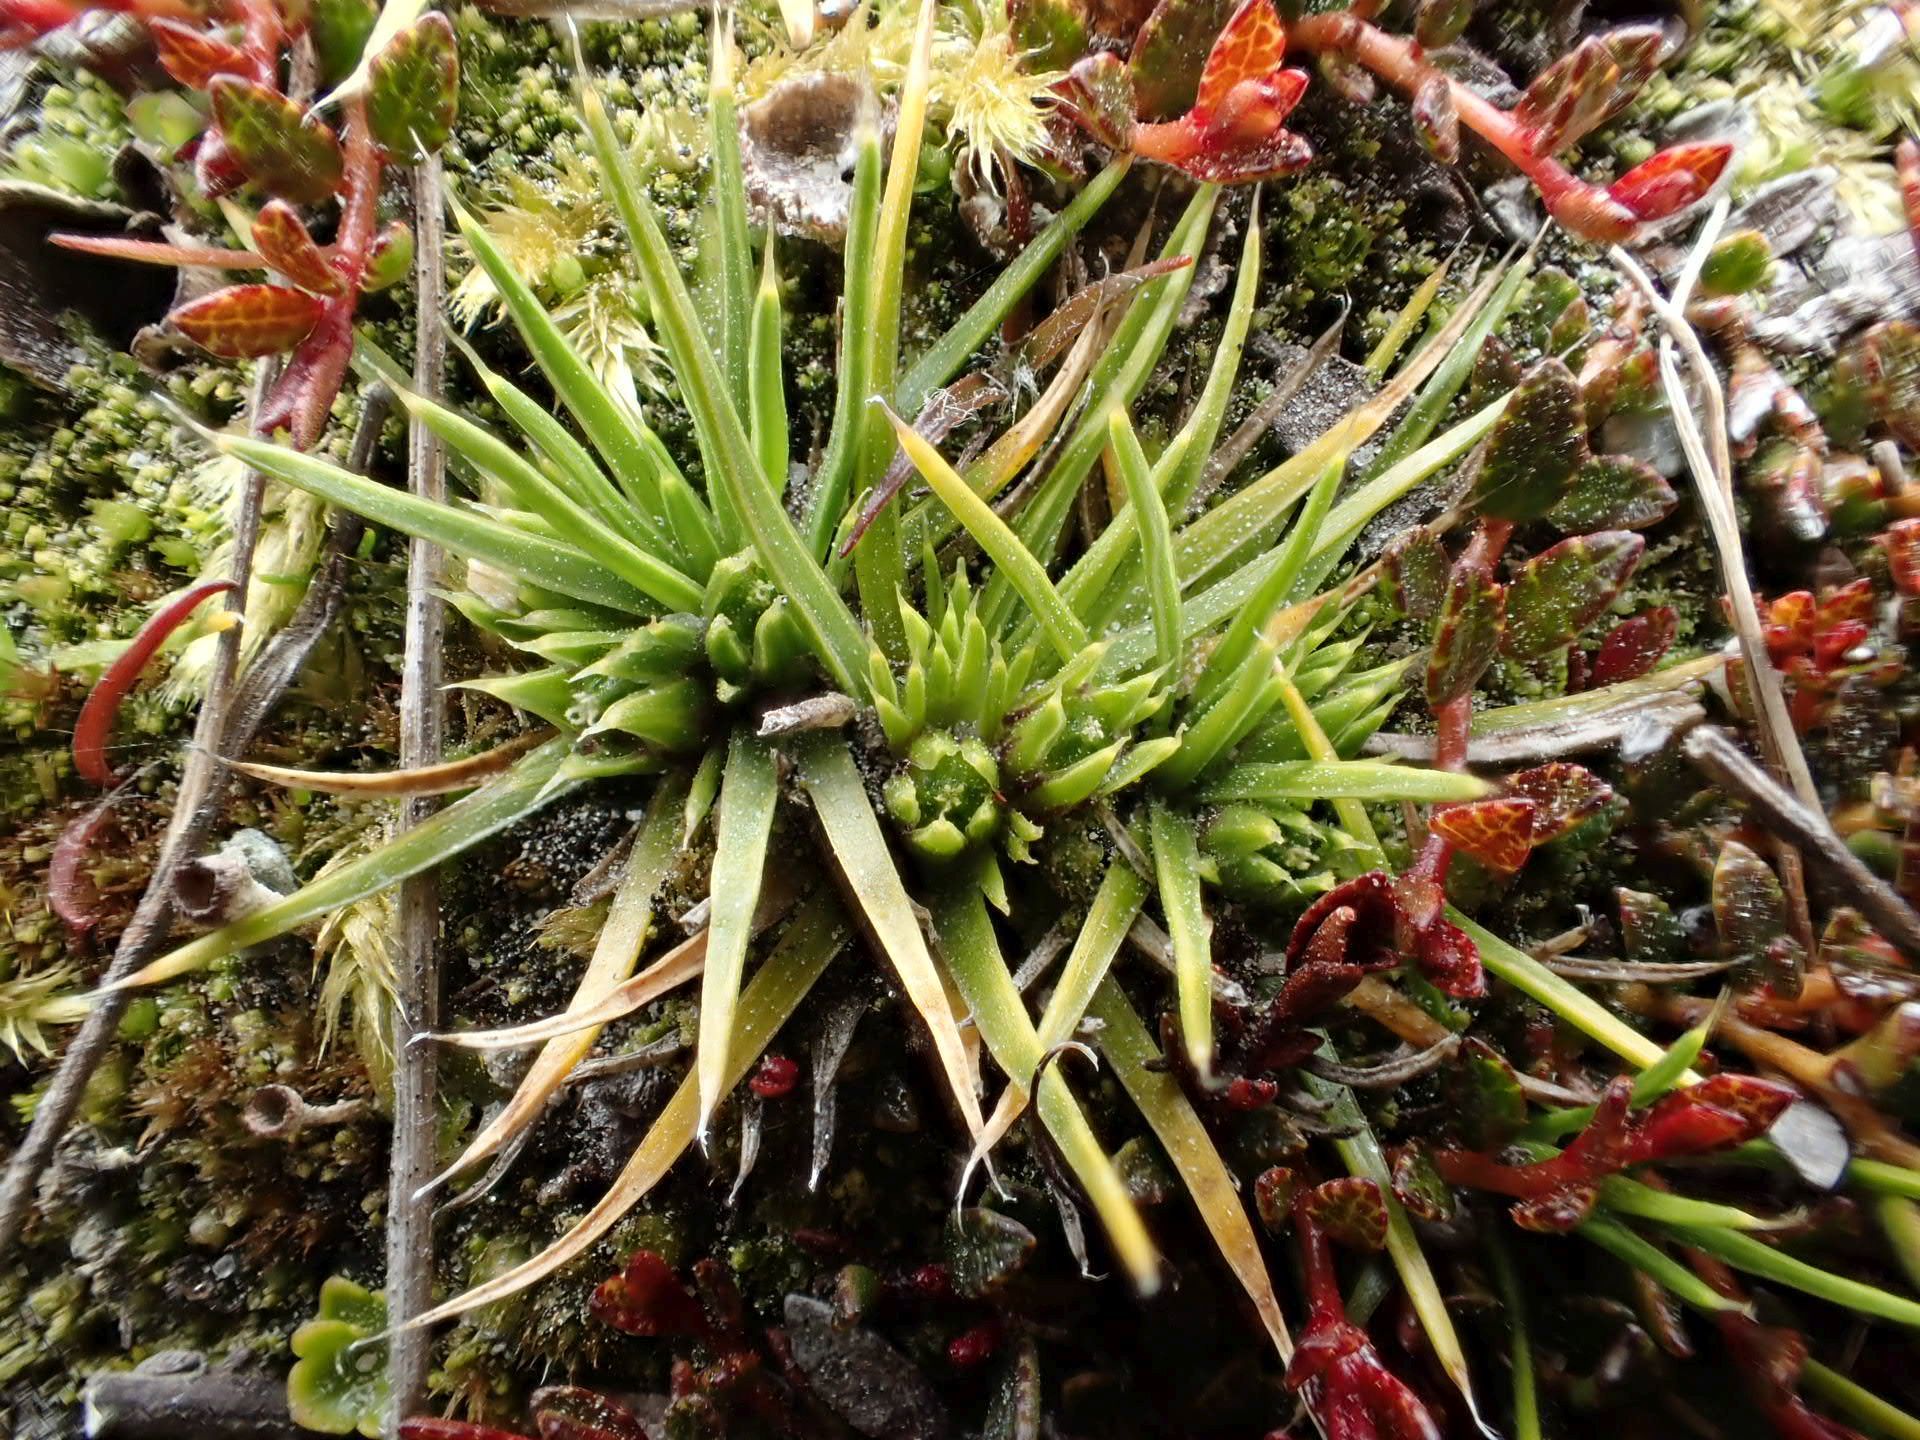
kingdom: Plantae
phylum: Tracheophyta
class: Magnoliopsida
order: Caryophyllales
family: Caryophyllaceae
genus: Colobanthus
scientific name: Colobanthus strictus
